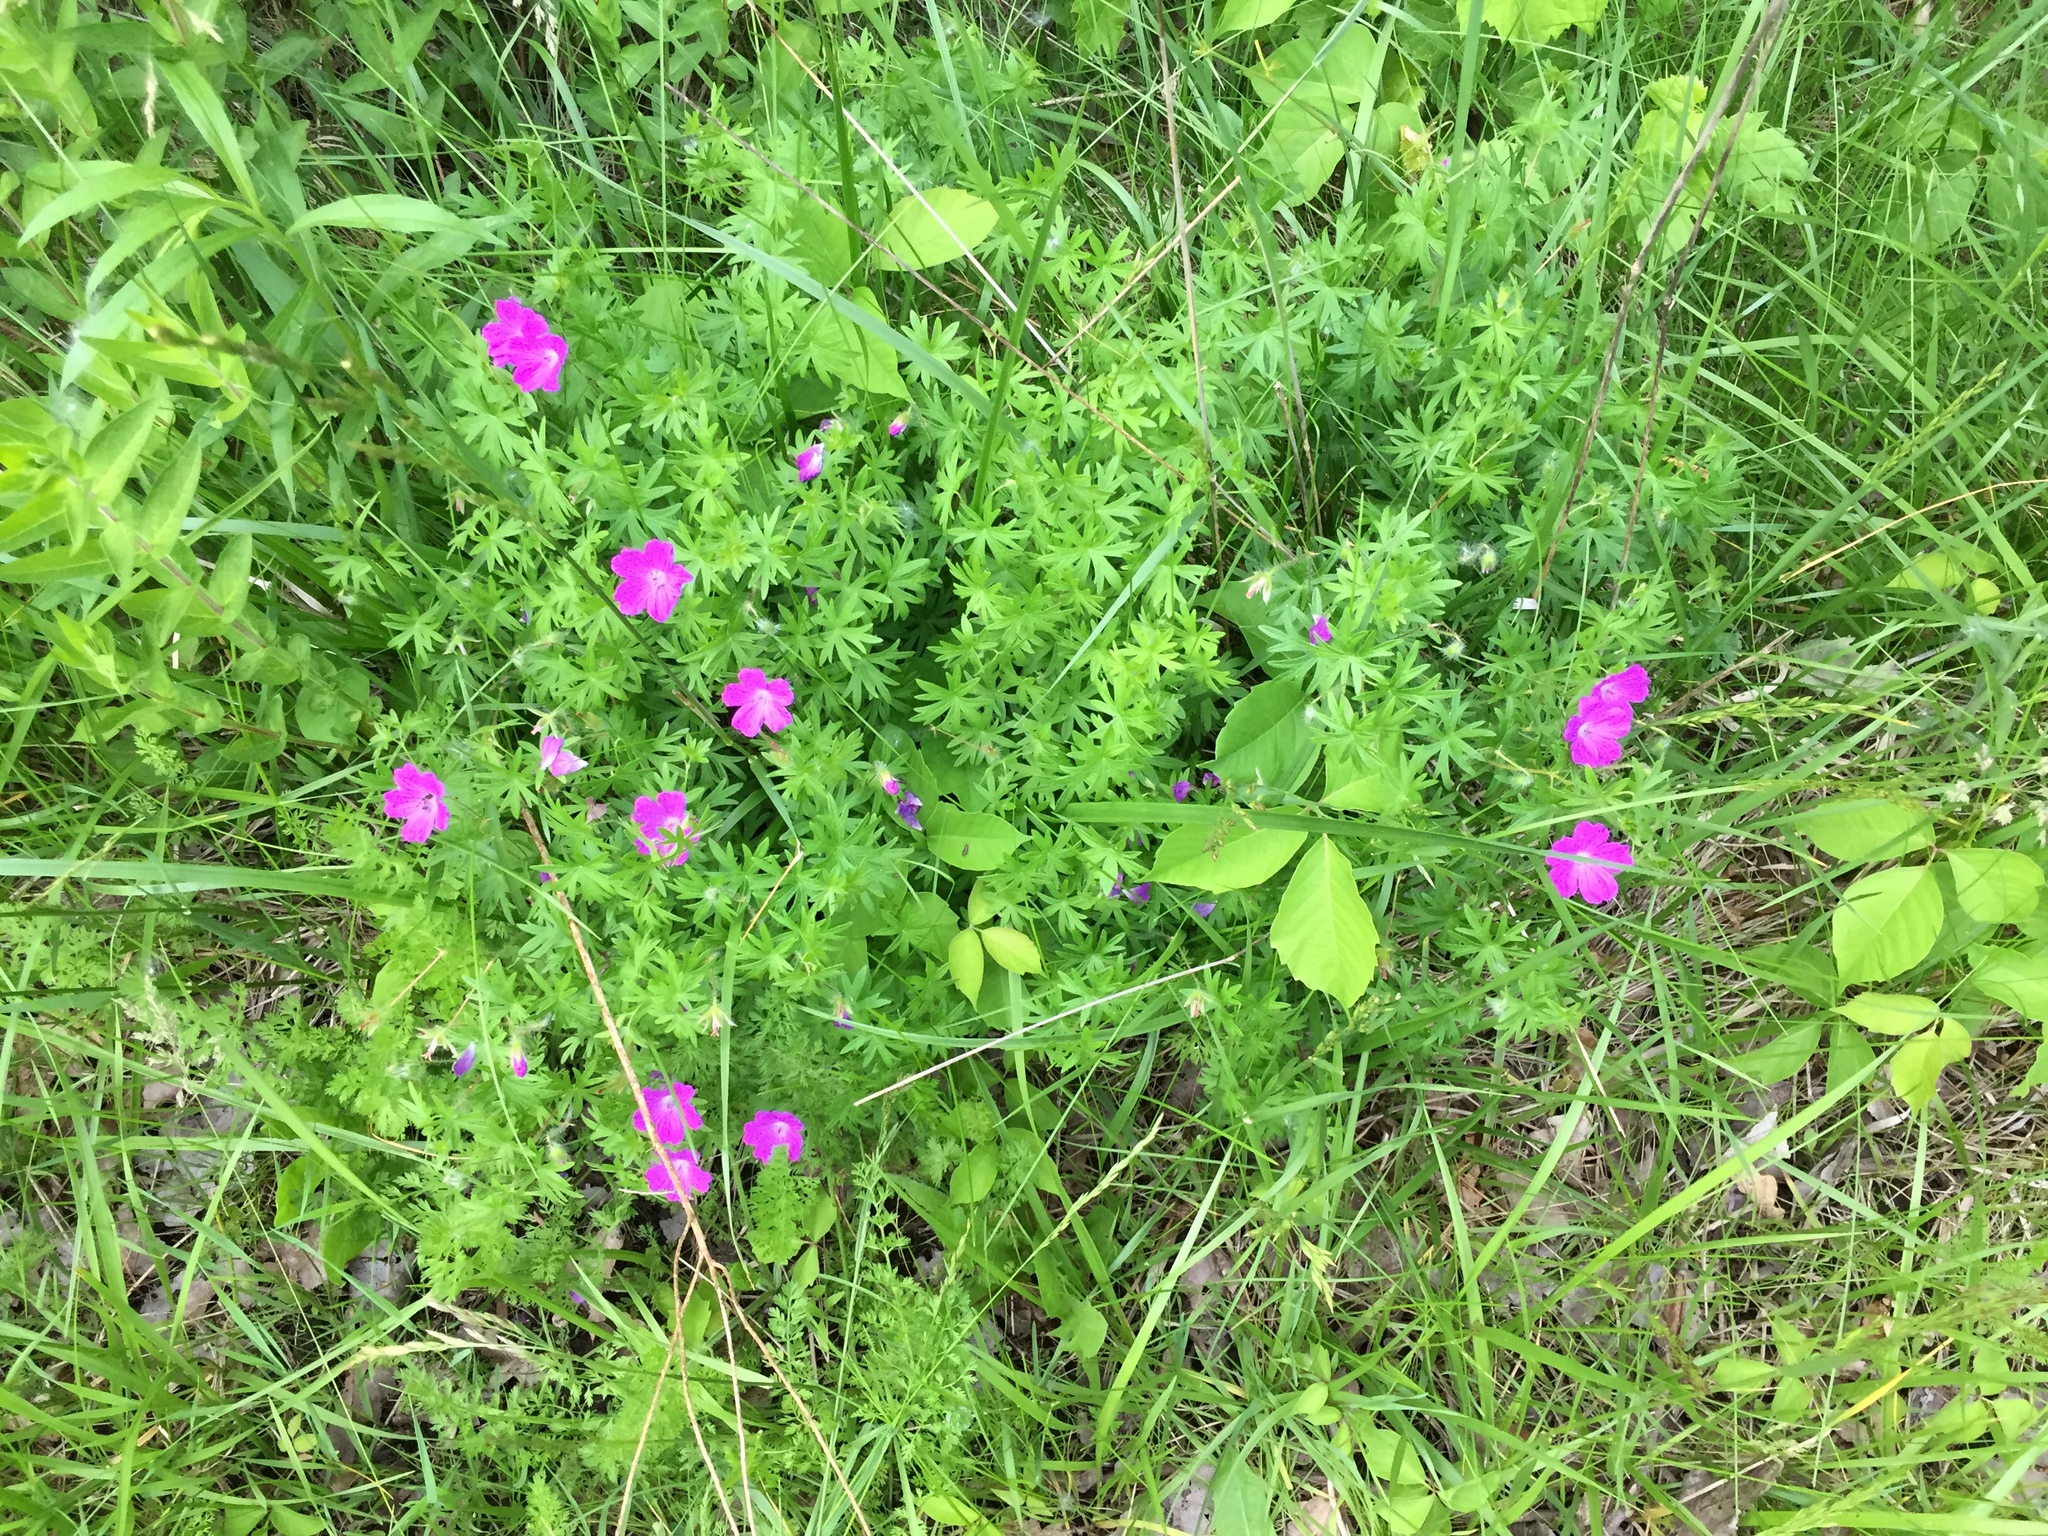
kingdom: Plantae
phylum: Tracheophyta
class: Magnoliopsida
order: Geraniales
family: Geraniaceae
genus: Geranium
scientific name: Geranium sanguineum
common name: Bloody crane's-bill
